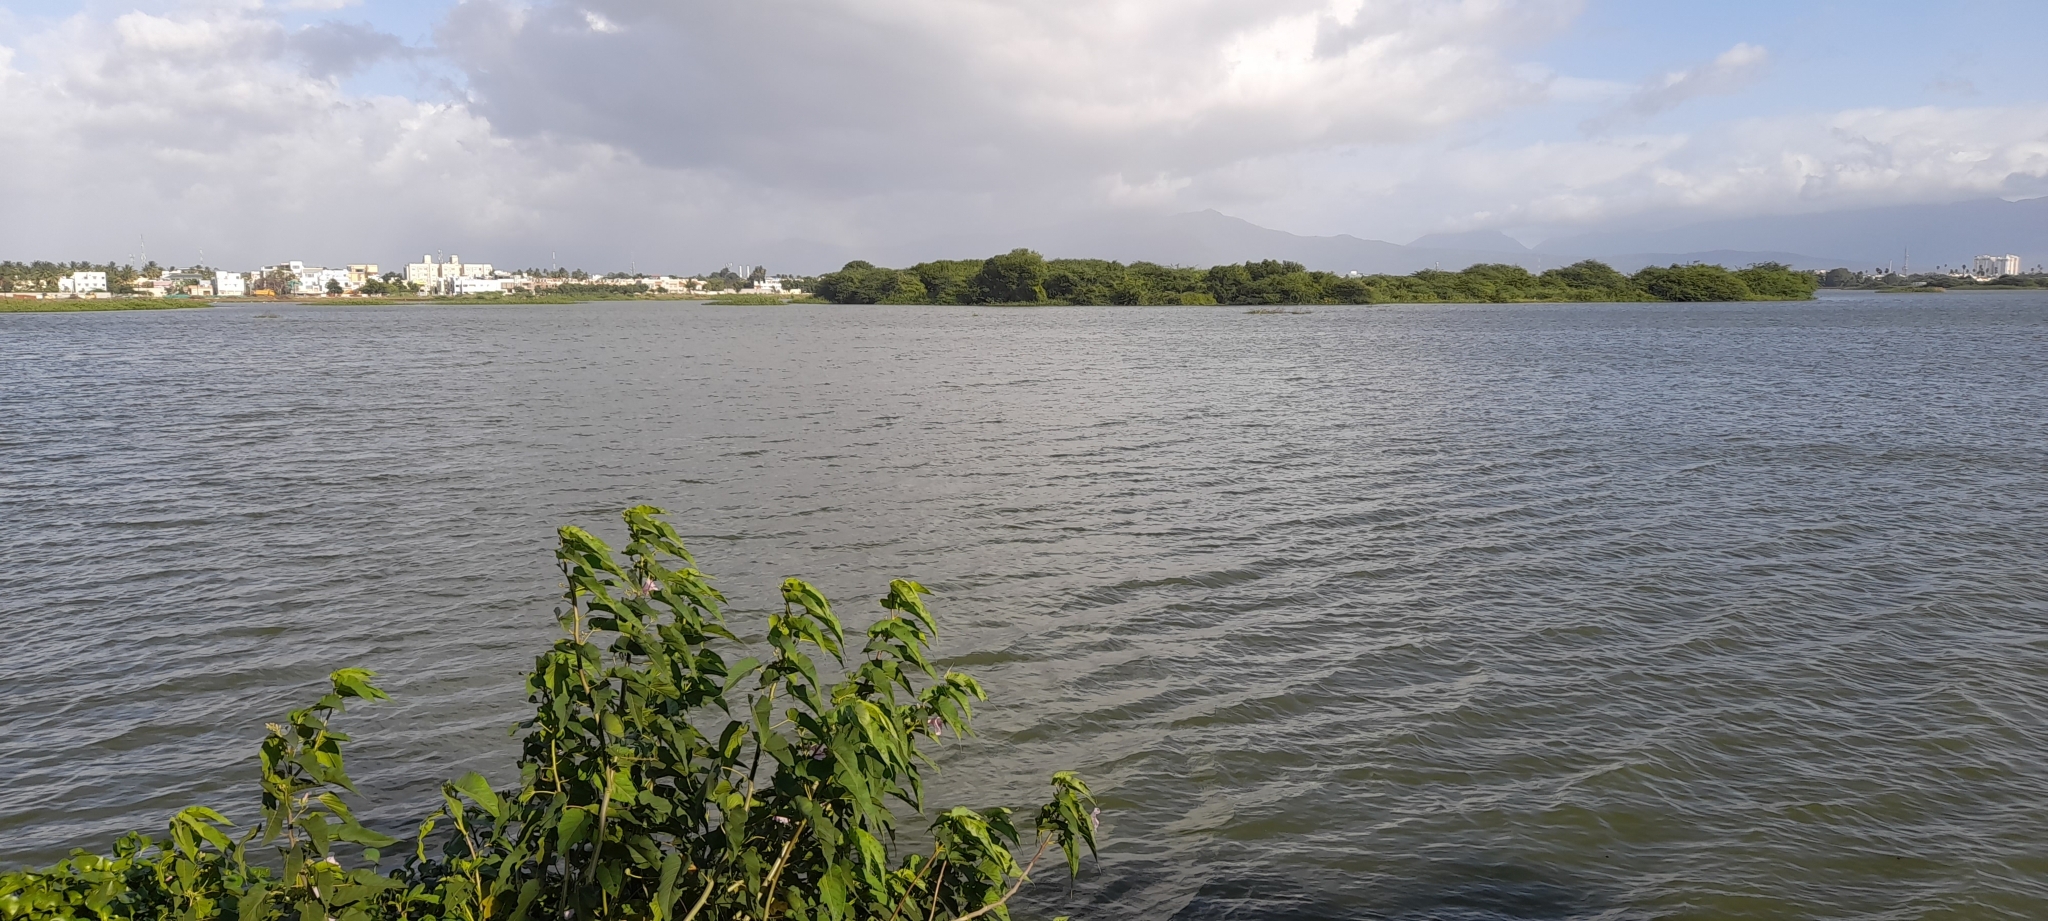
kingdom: Plantae
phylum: Tracheophyta
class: Magnoliopsida
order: Solanales
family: Convolvulaceae
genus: Ipomoea
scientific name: Ipomoea carnea
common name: Morning-glory
